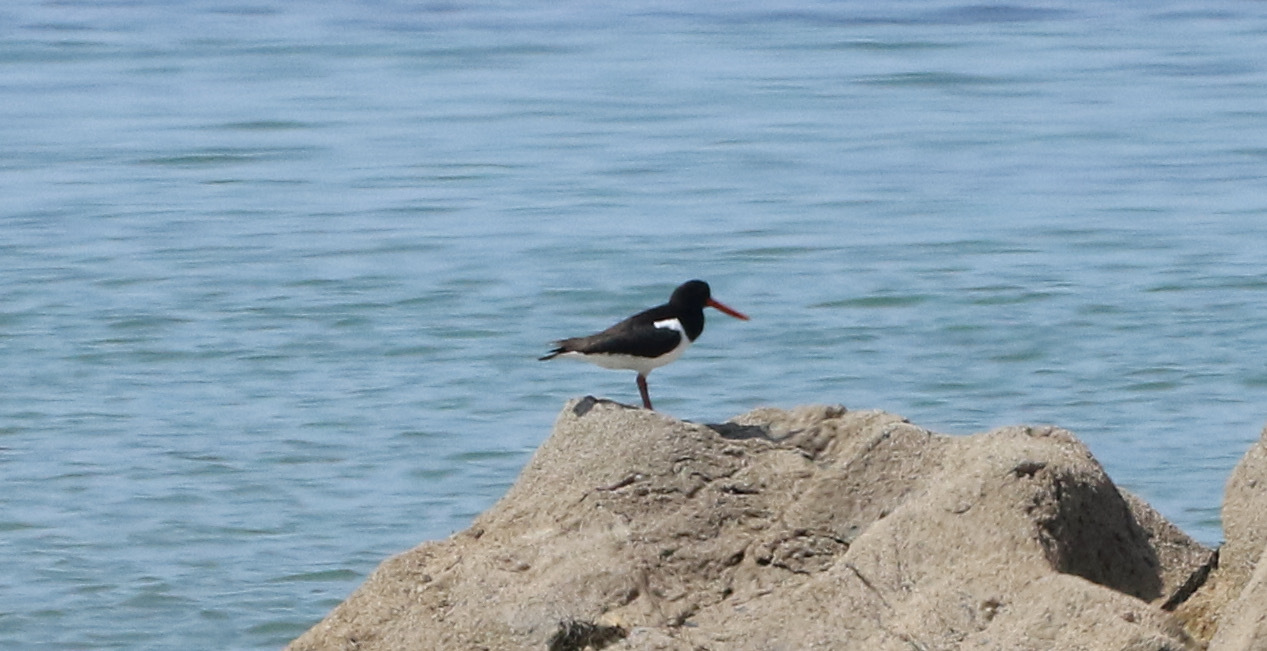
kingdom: Animalia
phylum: Chordata
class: Aves
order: Charadriiformes
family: Haematopodidae
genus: Haematopus
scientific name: Haematopus ostralegus
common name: Eurasian oystercatcher
